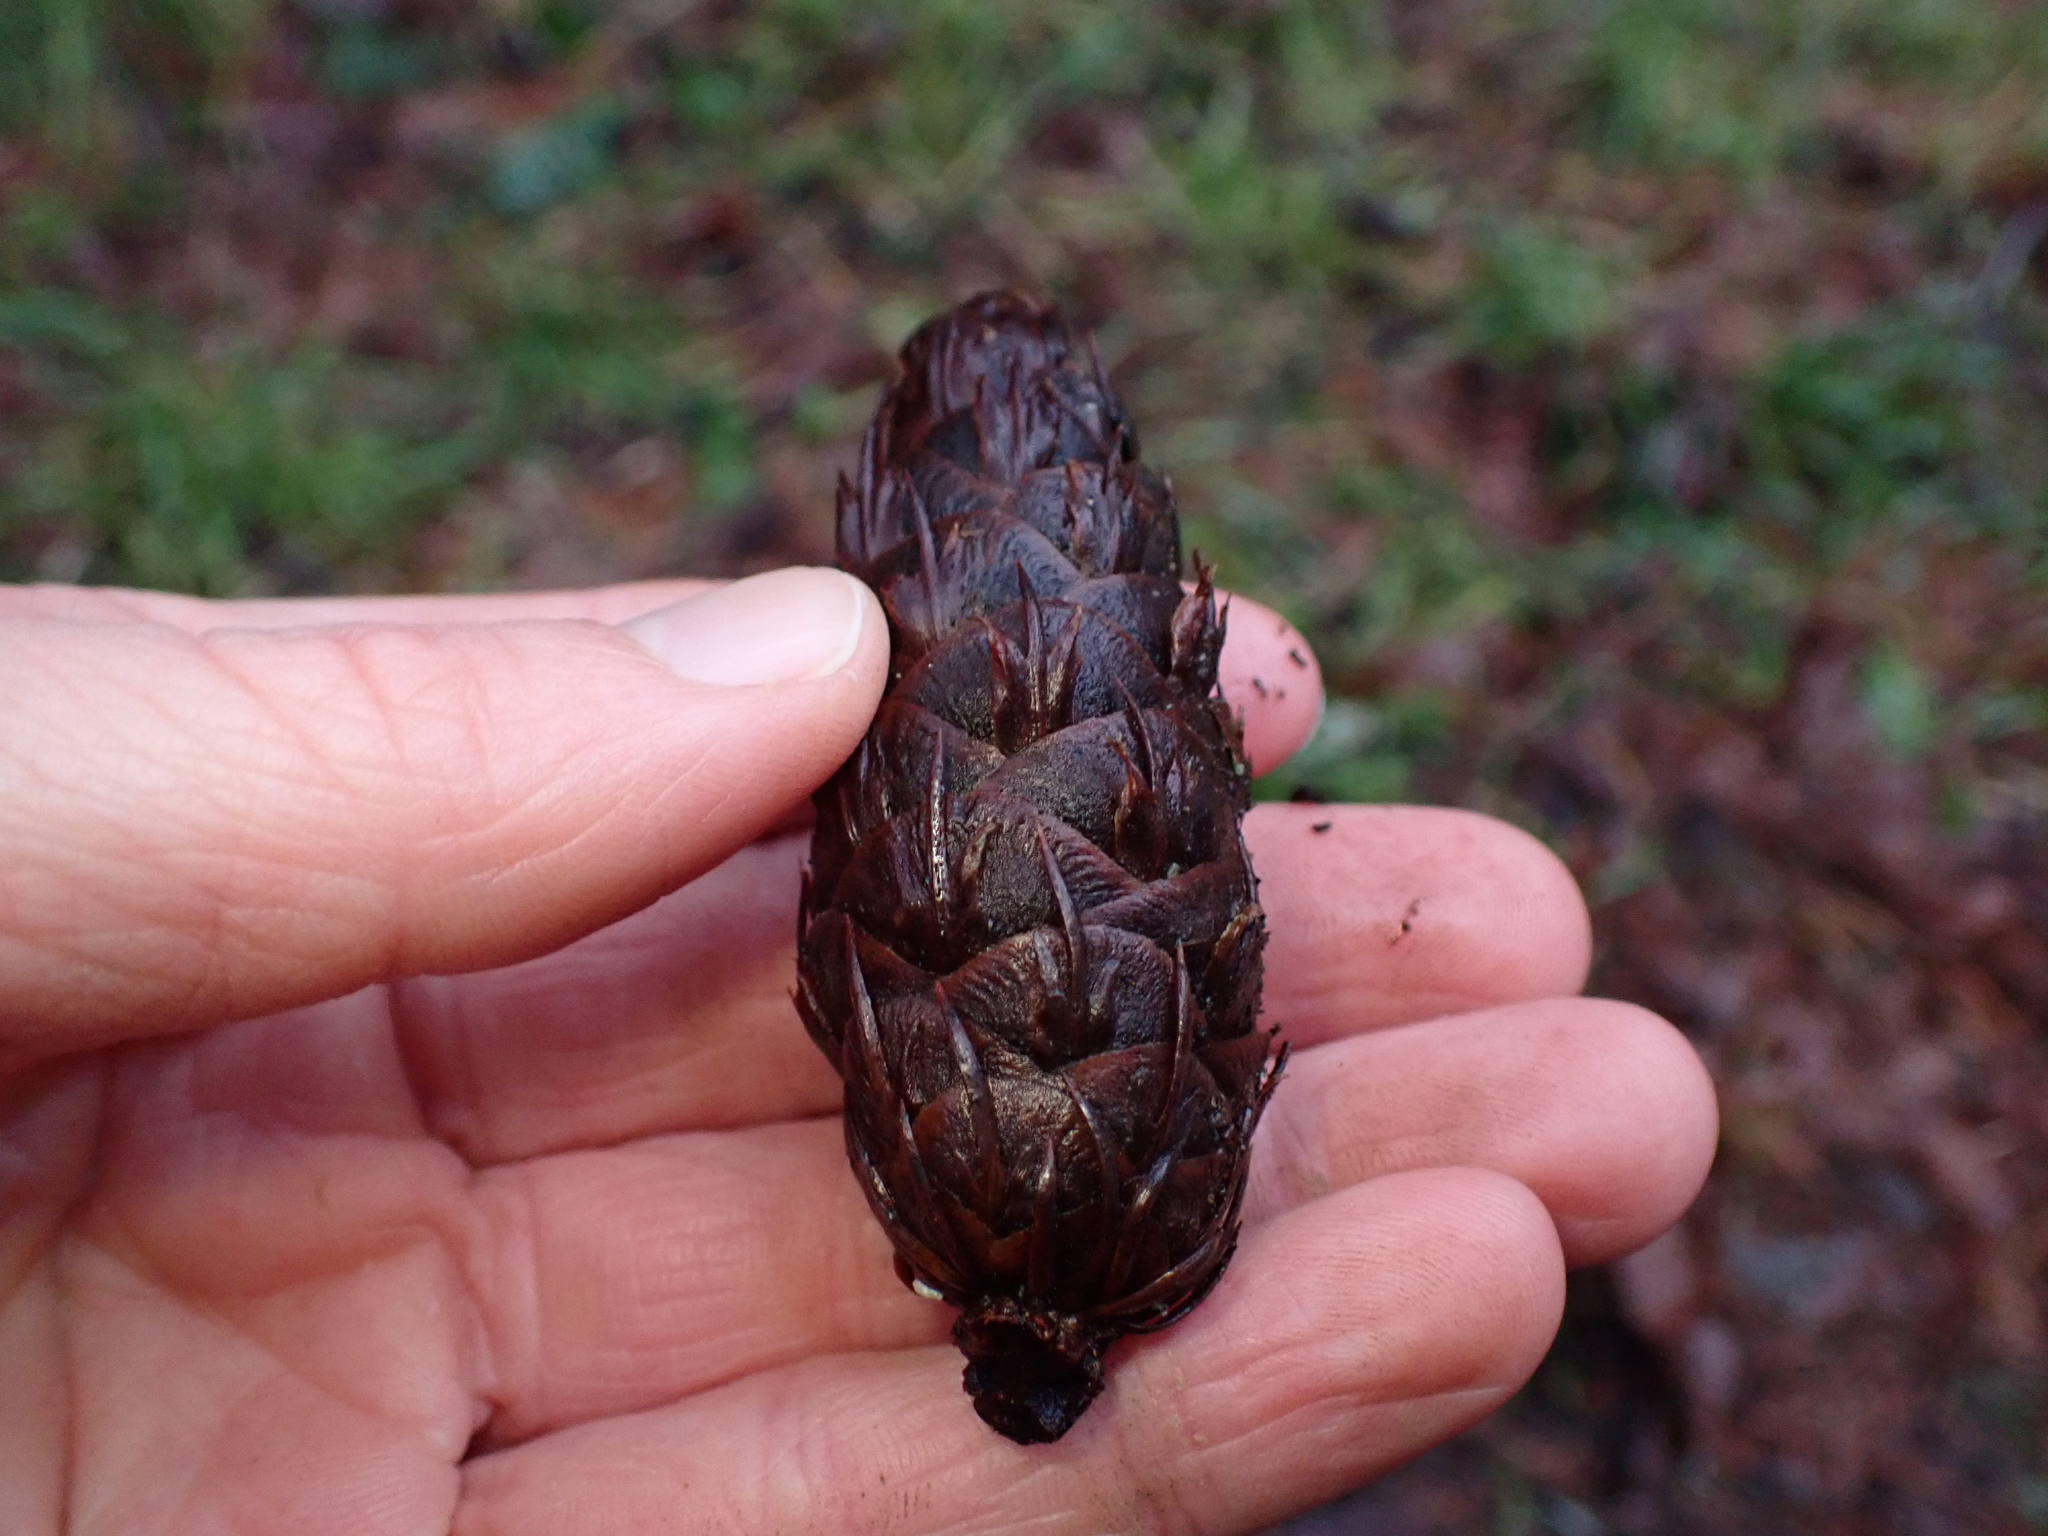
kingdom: Plantae
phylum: Tracheophyta
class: Pinopsida
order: Pinales
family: Pinaceae
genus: Pseudotsuga
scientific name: Pseudotsuga menziesii
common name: Douglas fir
